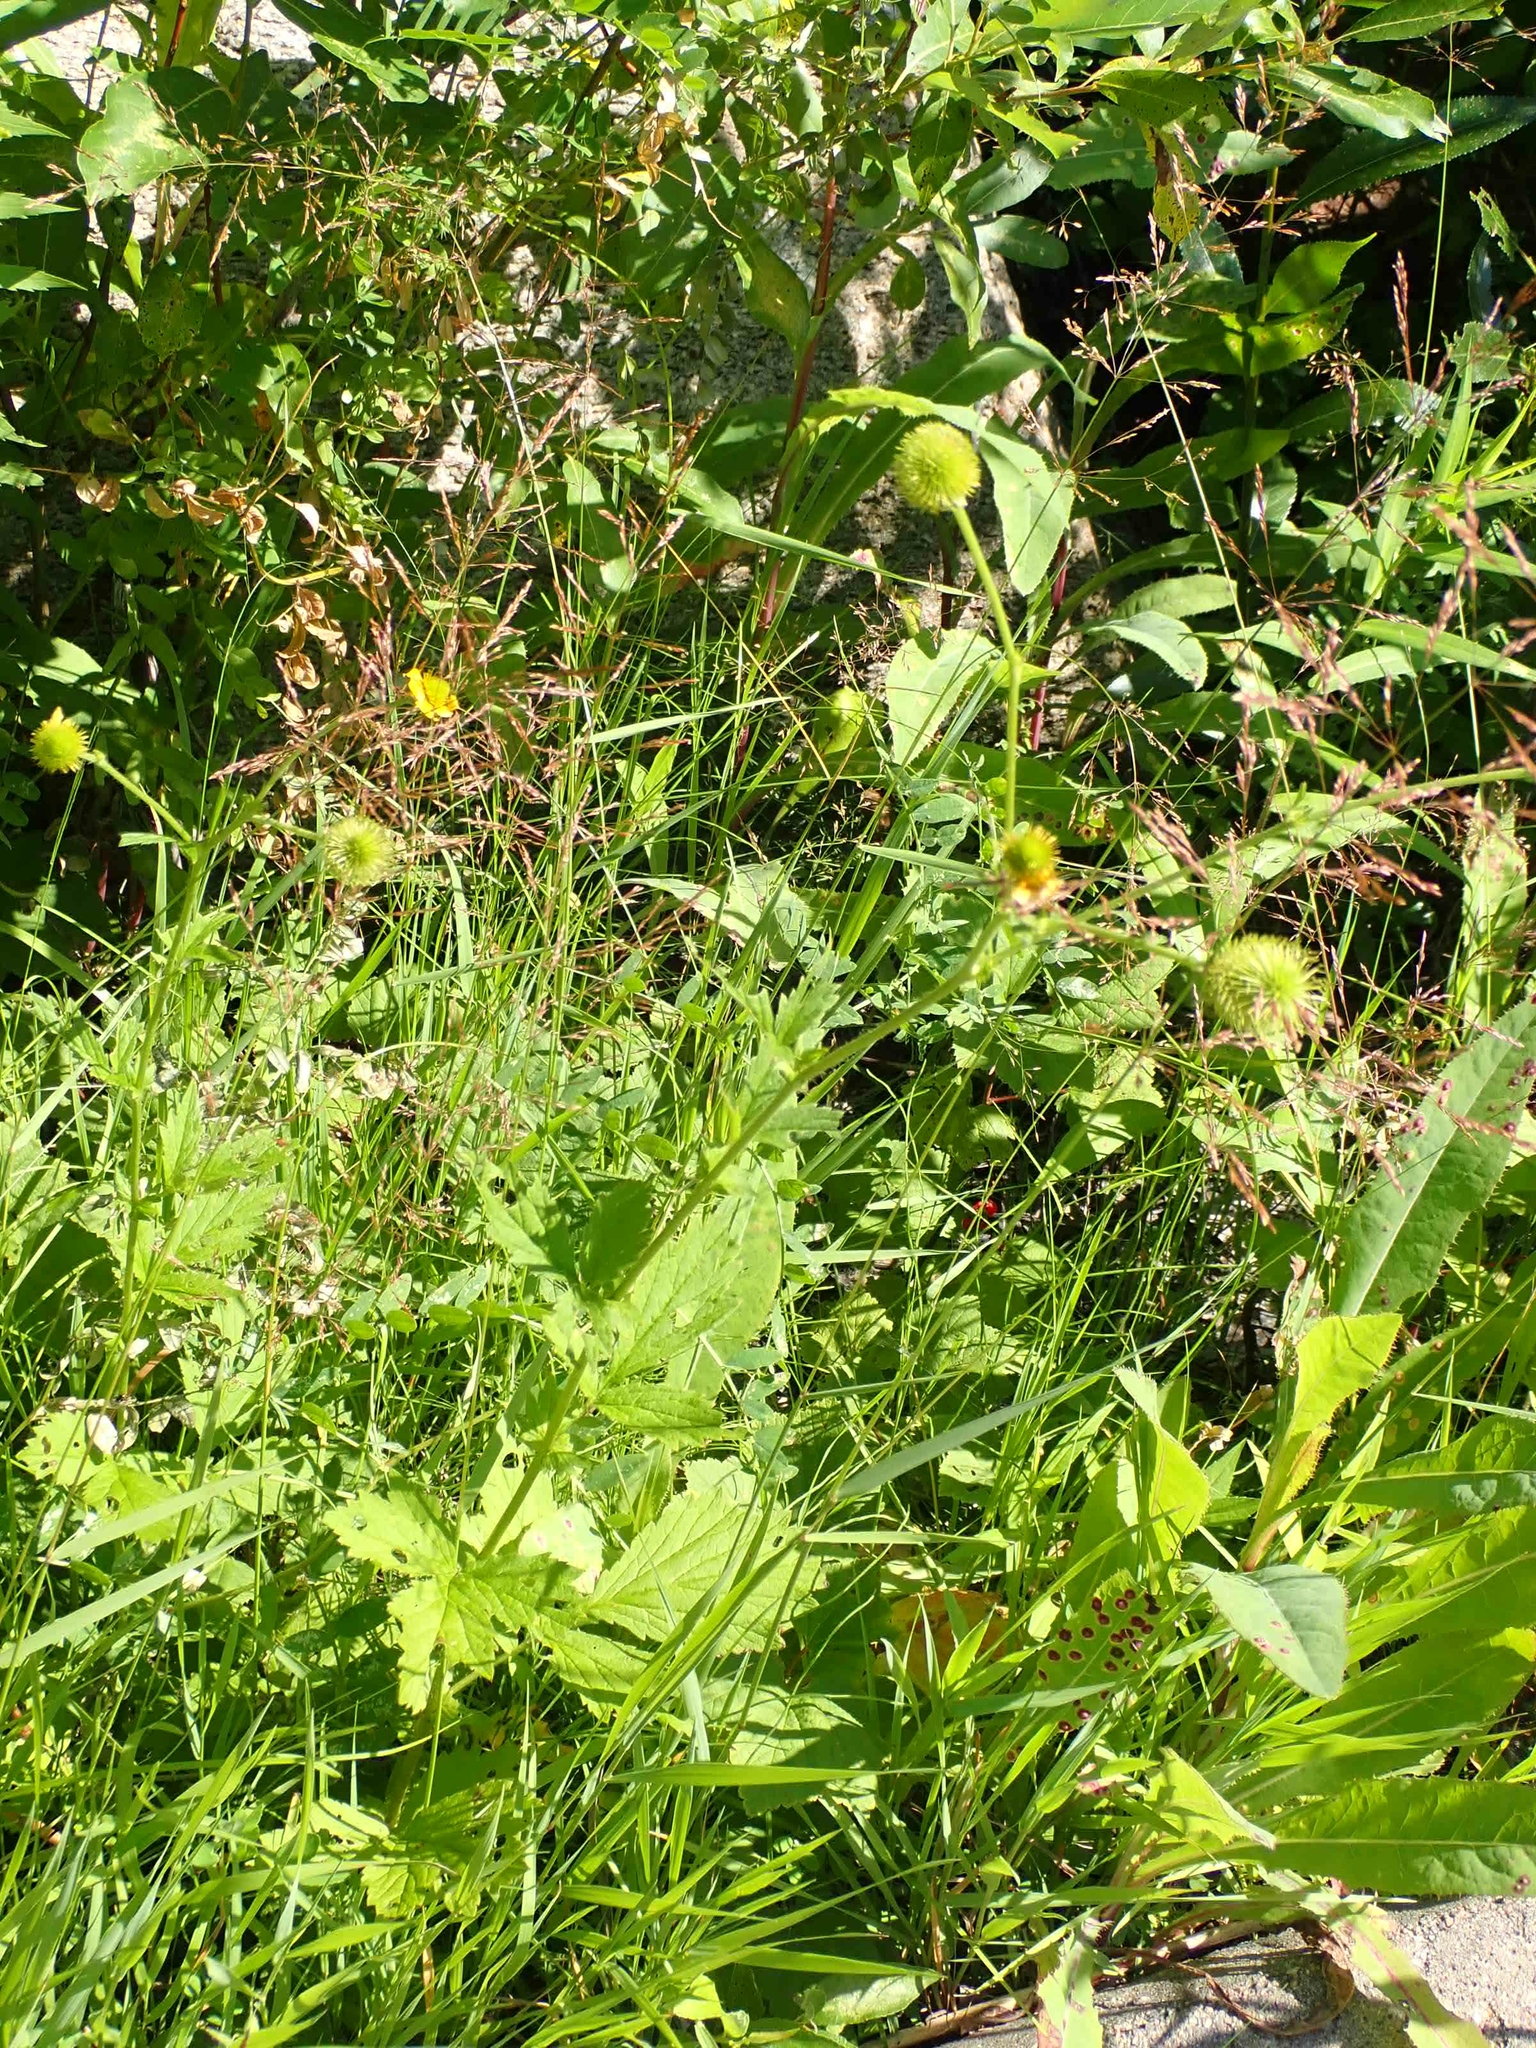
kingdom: Plantae
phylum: Tracheophyta
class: Magnoliopsida
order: Rosales
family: Rosaceae
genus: Geum
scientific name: Geum aleppicum
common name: Yellow avens
